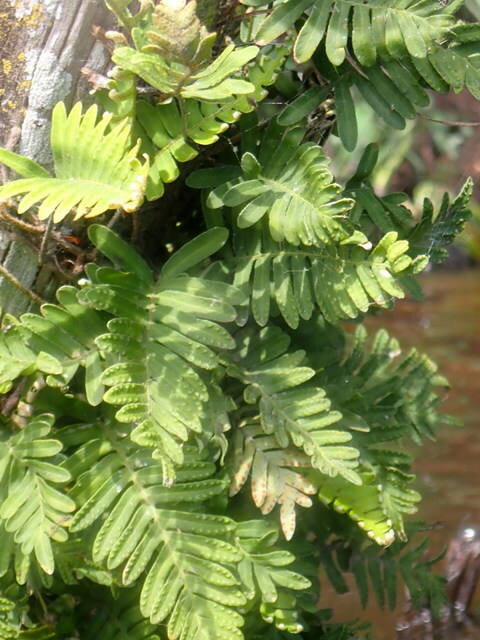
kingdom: Plantae
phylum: Tracheophyta
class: Polypodiopsida
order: Polypodiales
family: Polypodiaceae
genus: Pleopeltis
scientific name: Pleopeltis michauxiana
